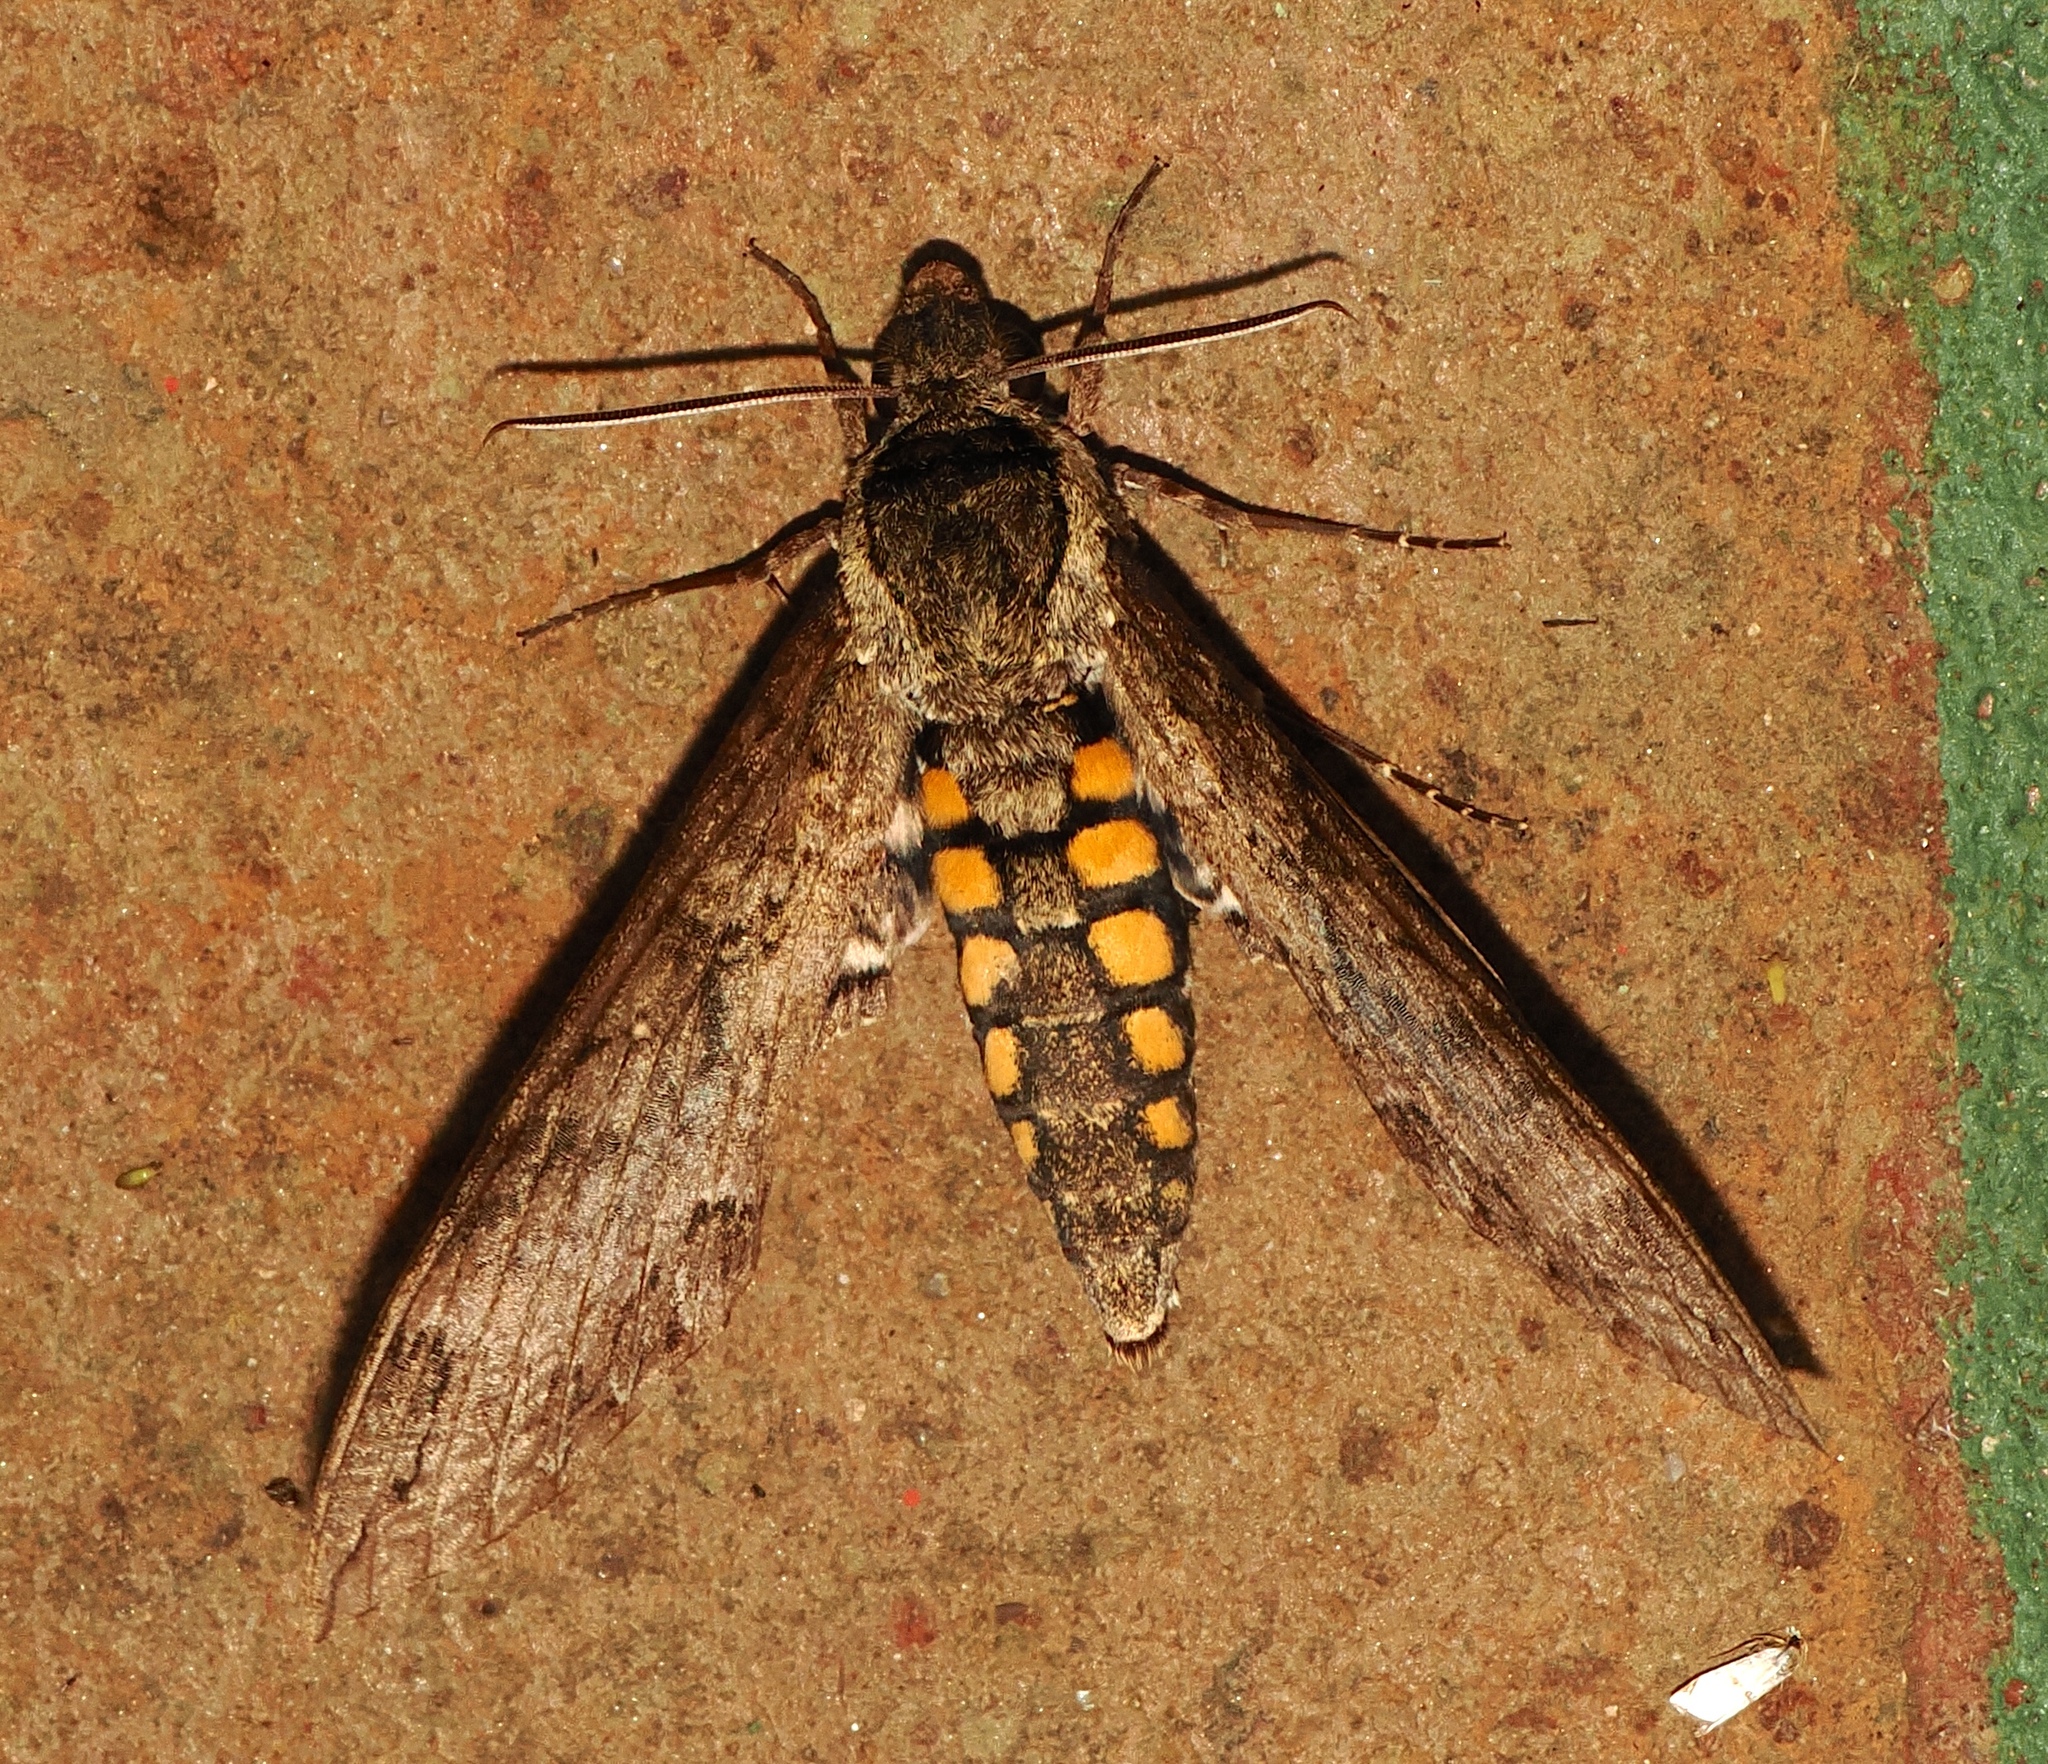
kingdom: Animalia
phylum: Arthropoda
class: Insecta
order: Lepidoptera
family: Sphingidae
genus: Manduca
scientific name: Manduca afflicta
